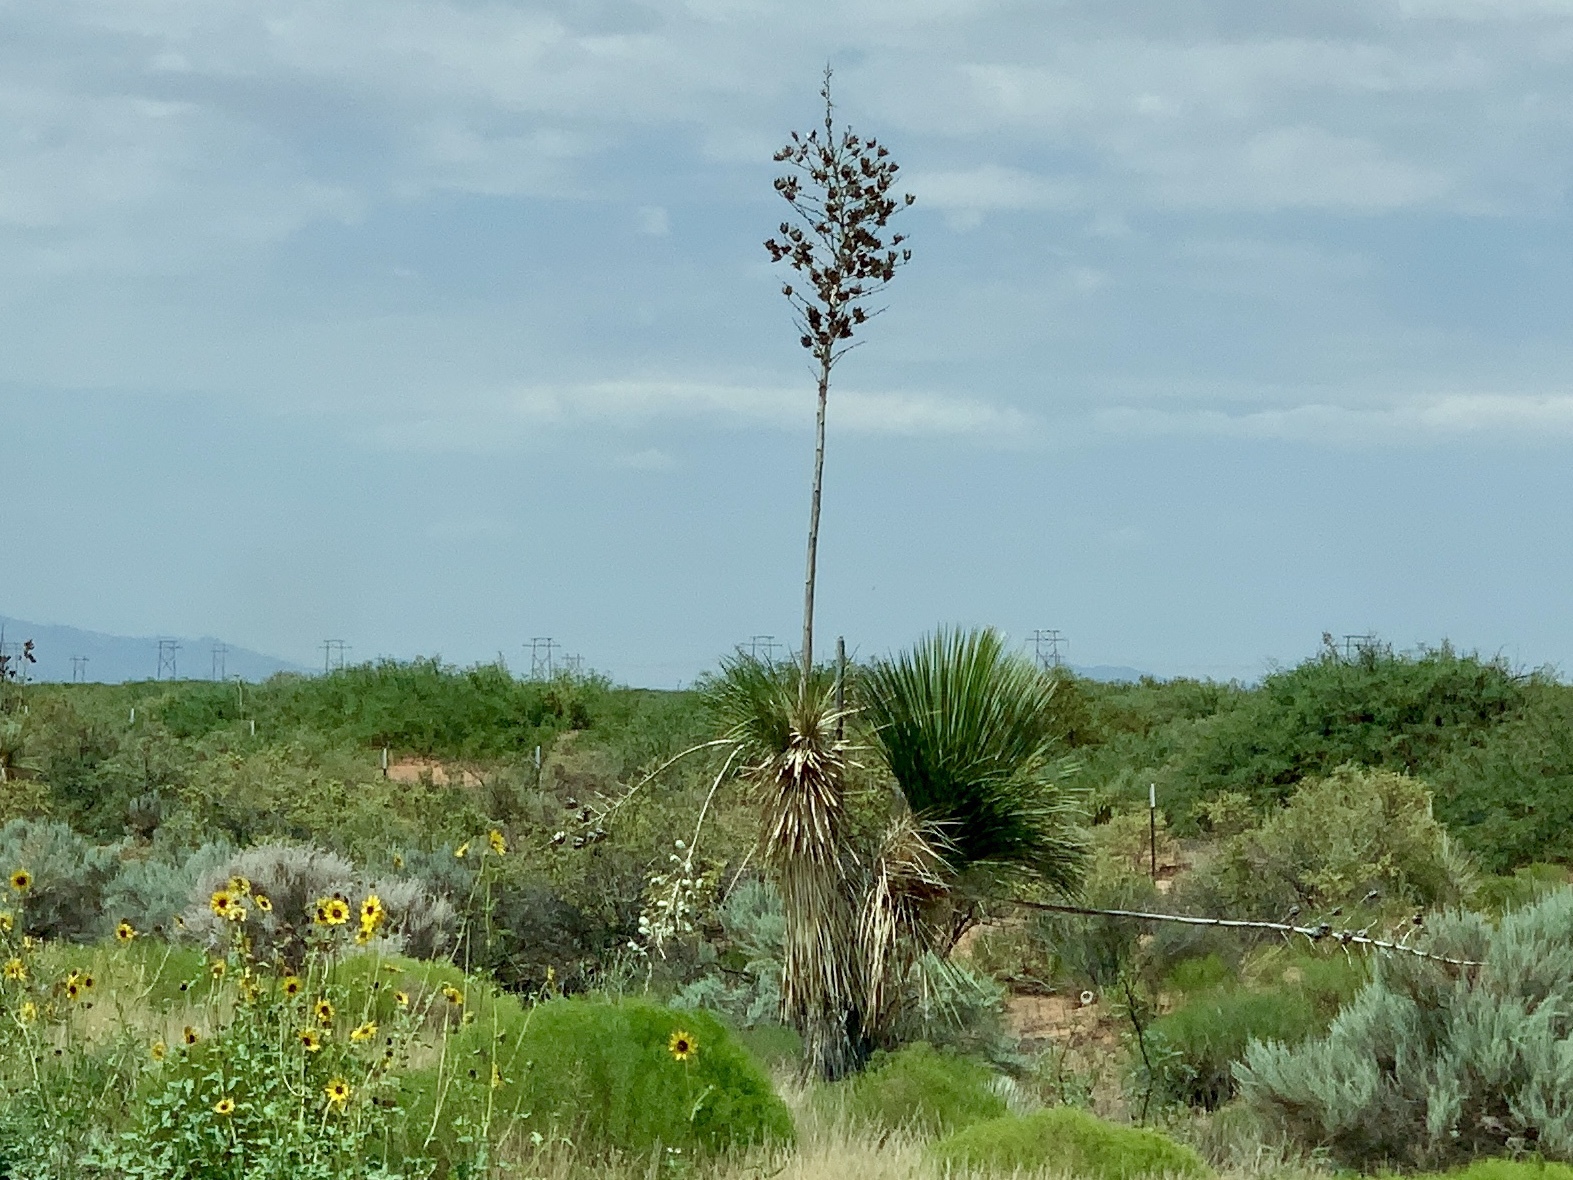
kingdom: Plantae
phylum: Tracheophyta
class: Liliopsida
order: Asparagales
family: Asparagaceae
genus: Yucca
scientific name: Yucca elata
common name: Palmella
